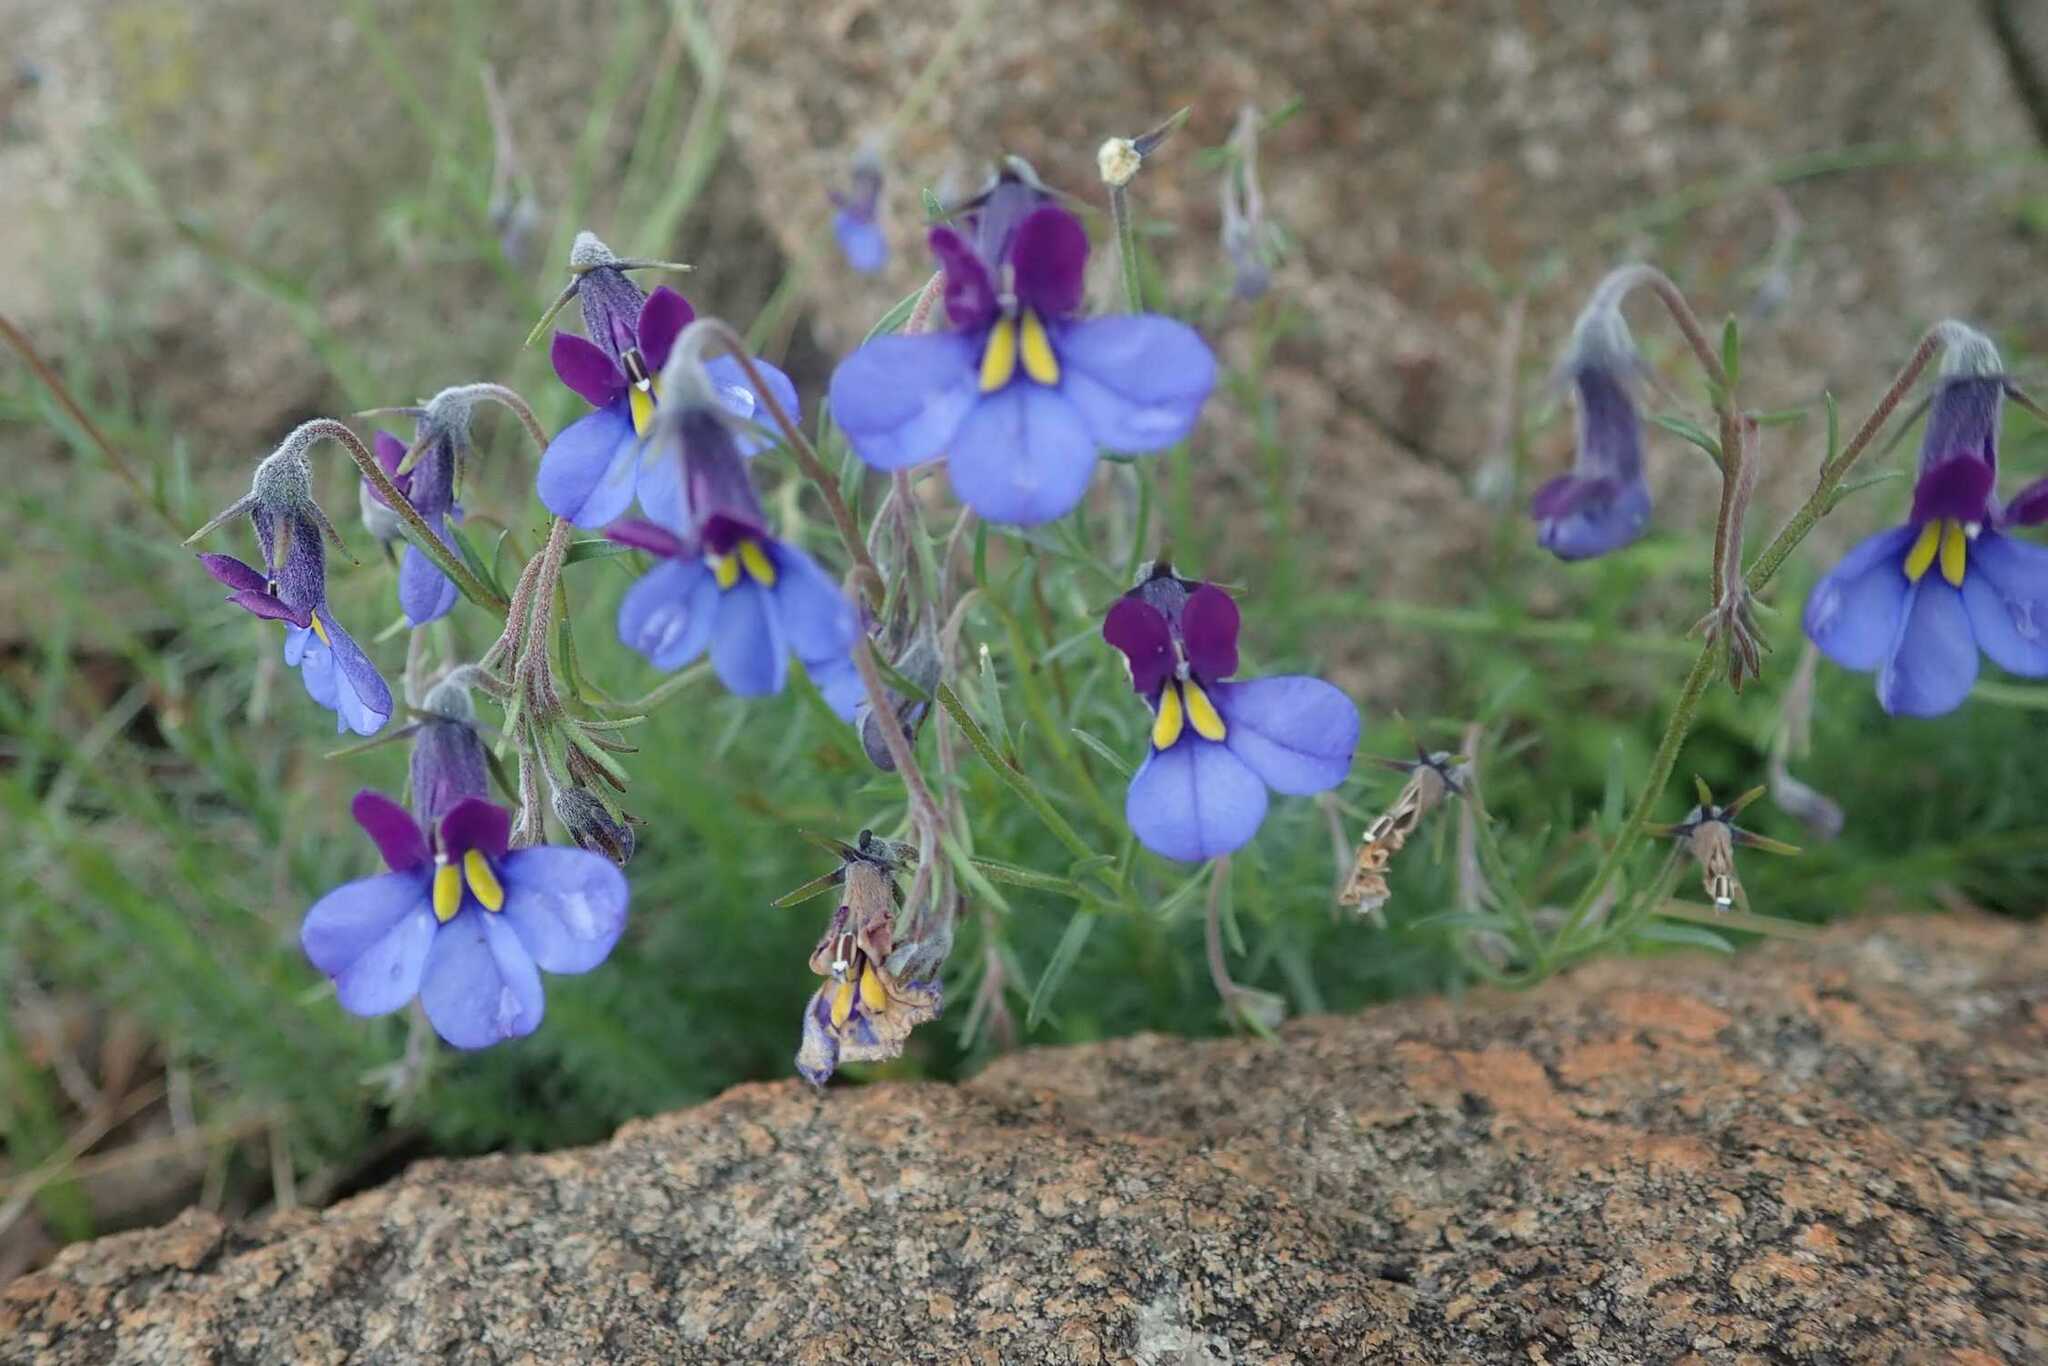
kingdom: Plantae
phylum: Tracheophyta
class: Magnoliopsida
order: Asterales
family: Campanulaceae
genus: Monopsis
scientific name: Monopsis decipiens
